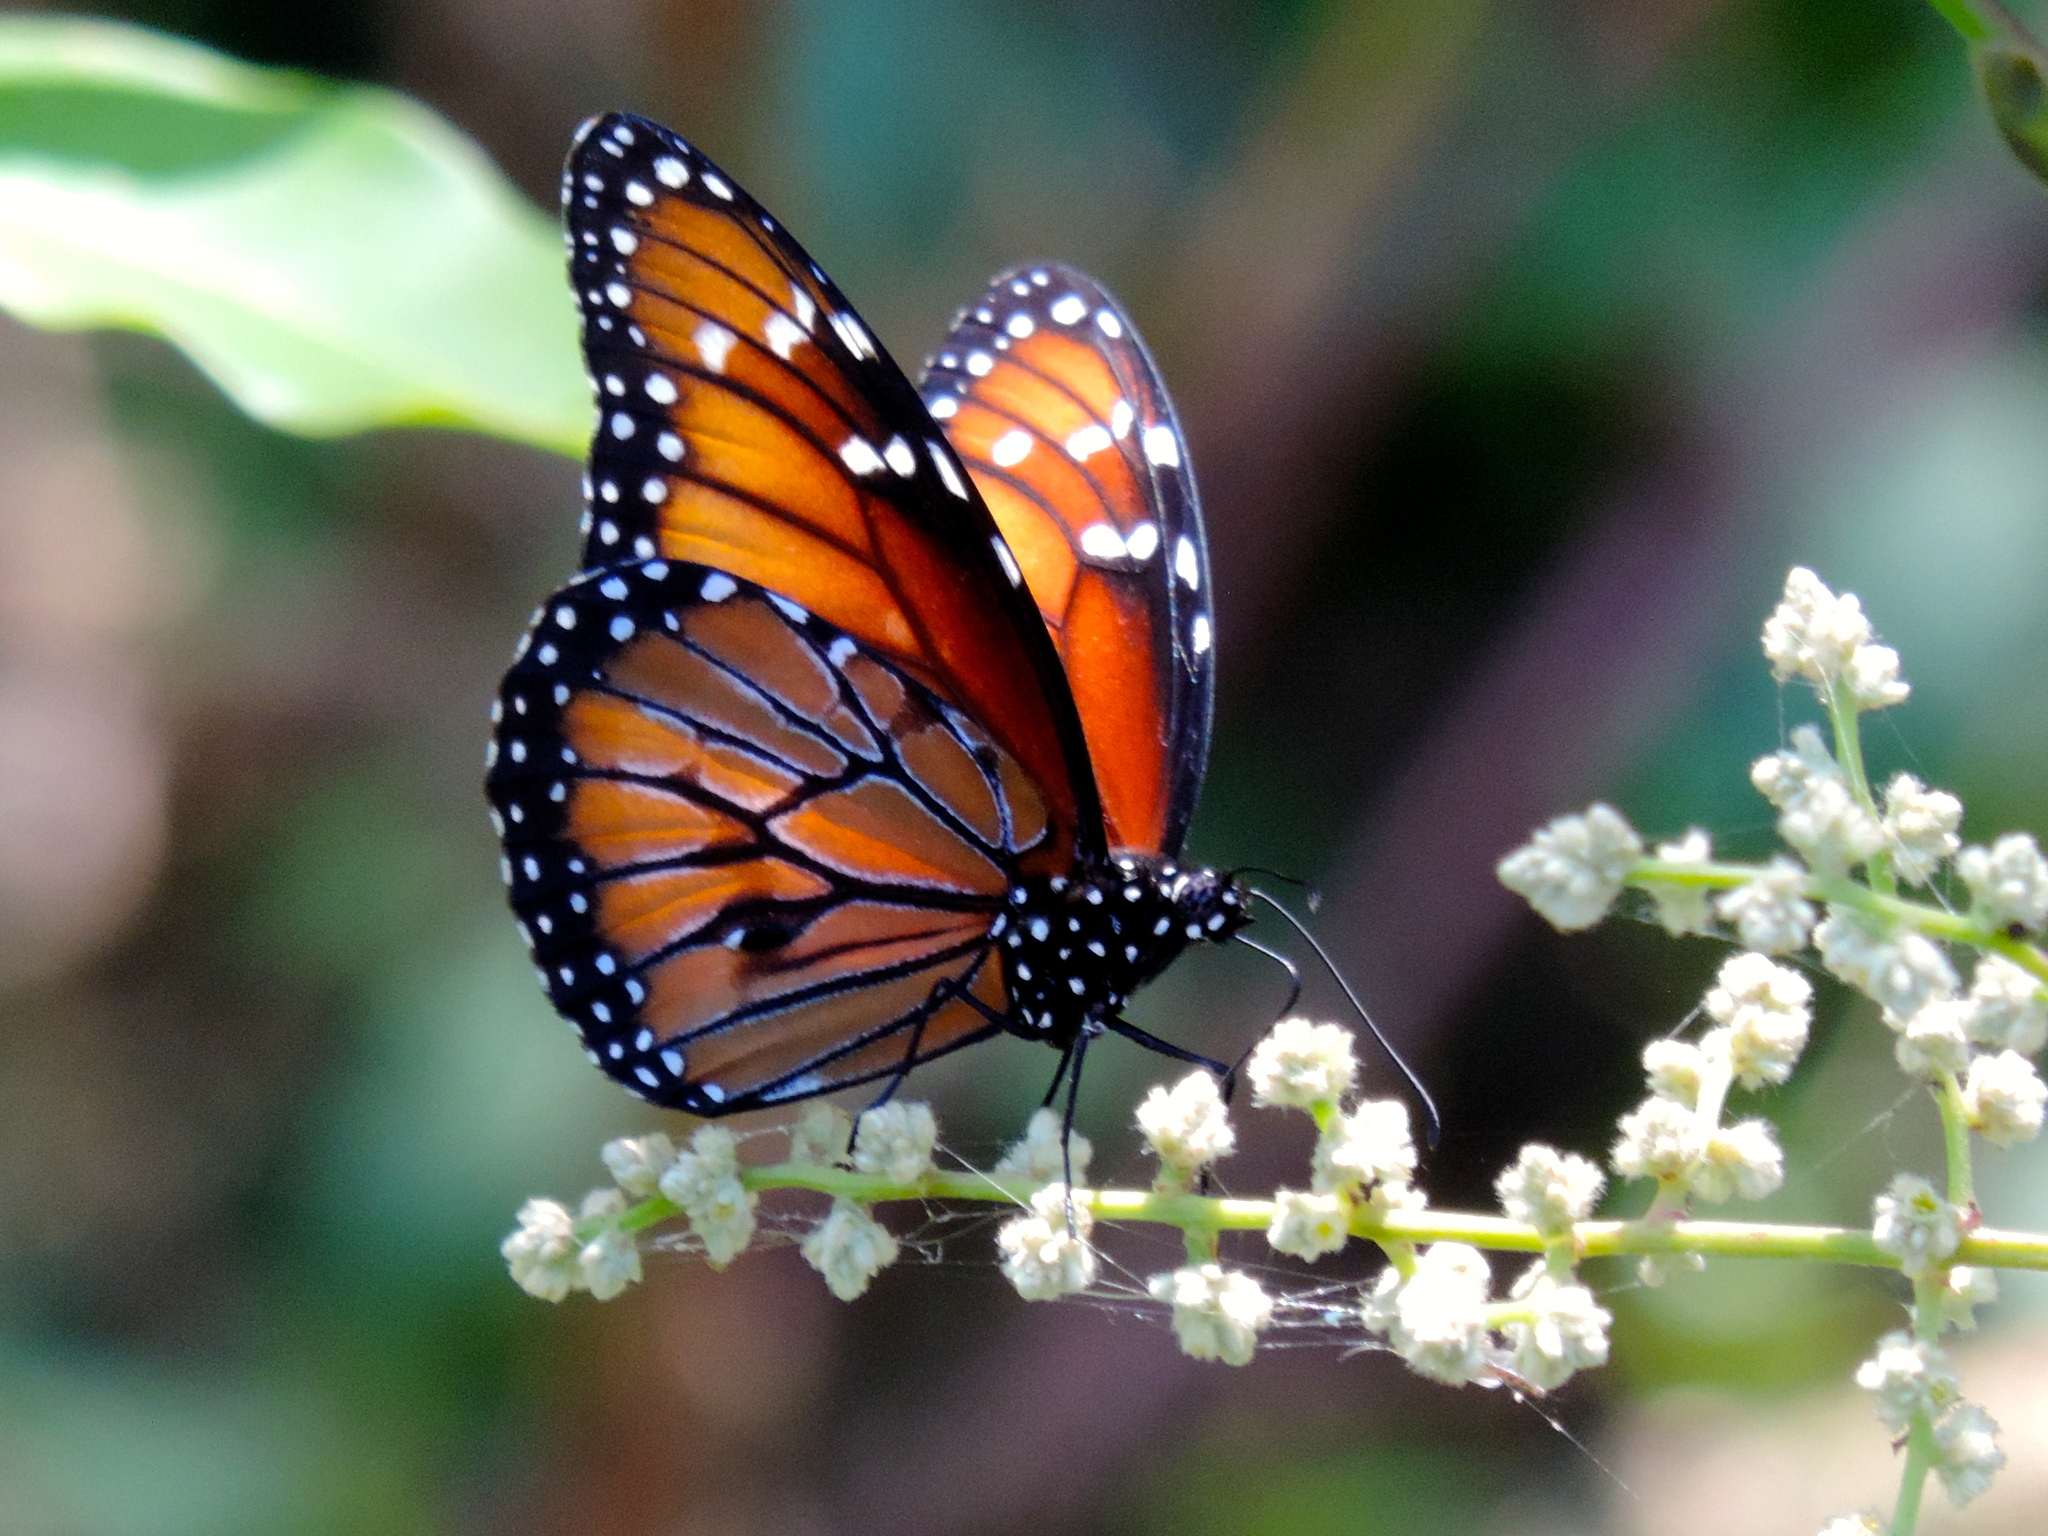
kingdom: Animalia
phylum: Arthropoda
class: Insecta
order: Lepidoptera
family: Nymphalidae
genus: Danaus
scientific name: Danaus eresimus
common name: Soldier
